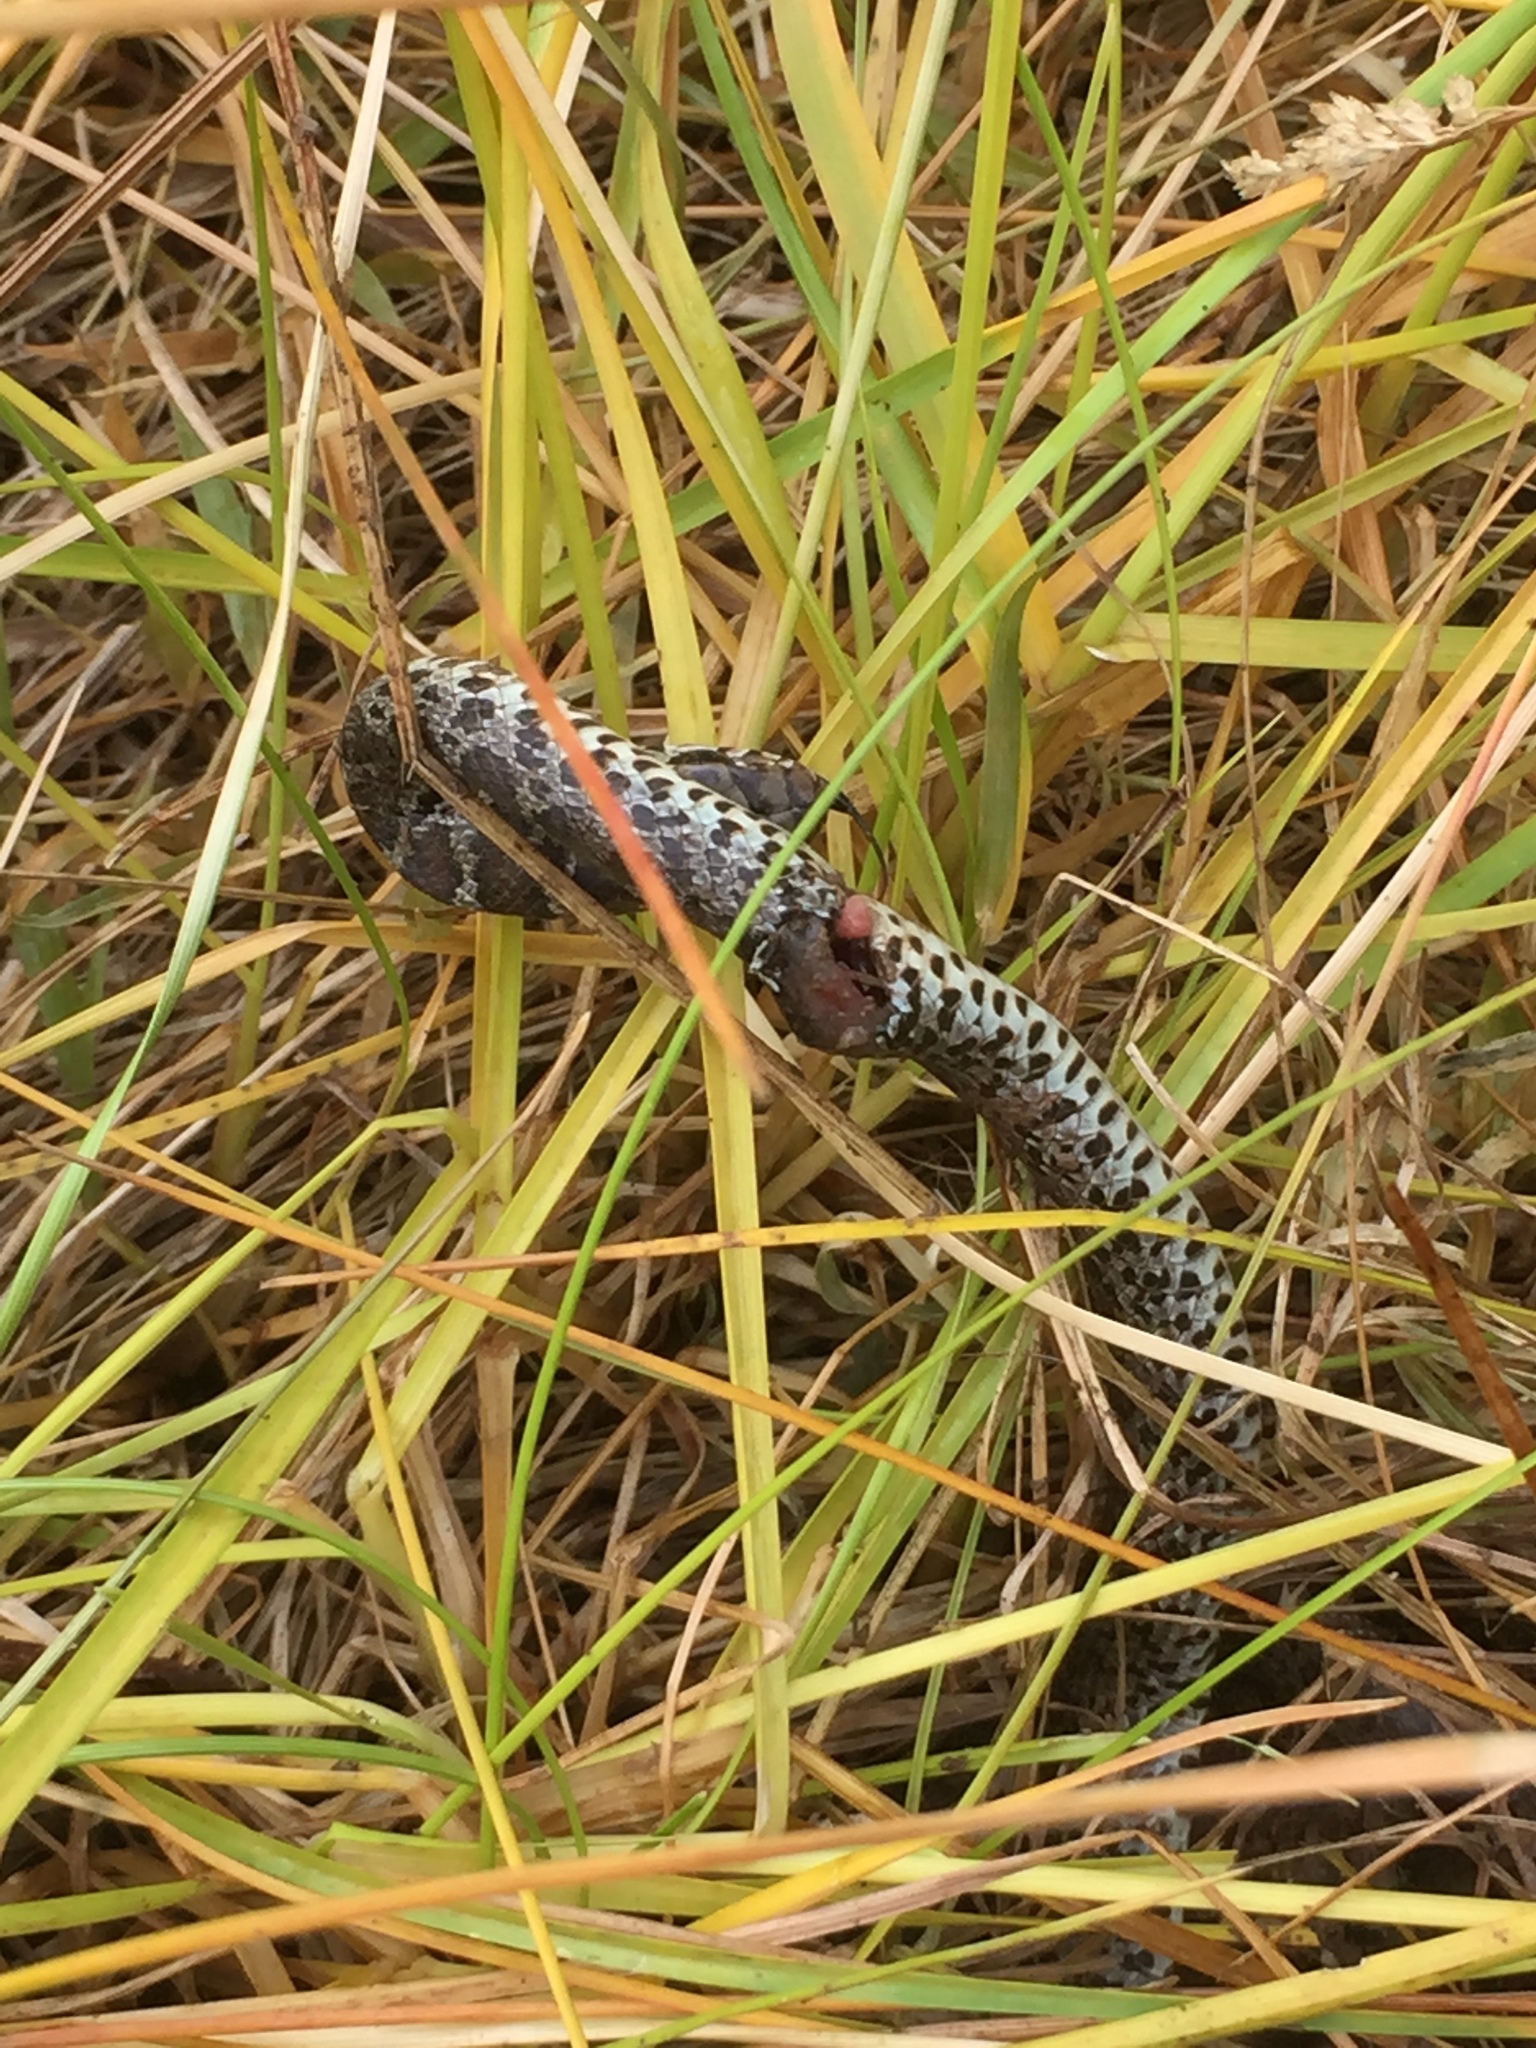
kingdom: Animalia
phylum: Chordata
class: Squamata
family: Colubridae
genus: Coluber
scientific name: Coluber constrictor
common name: Eastern racer
